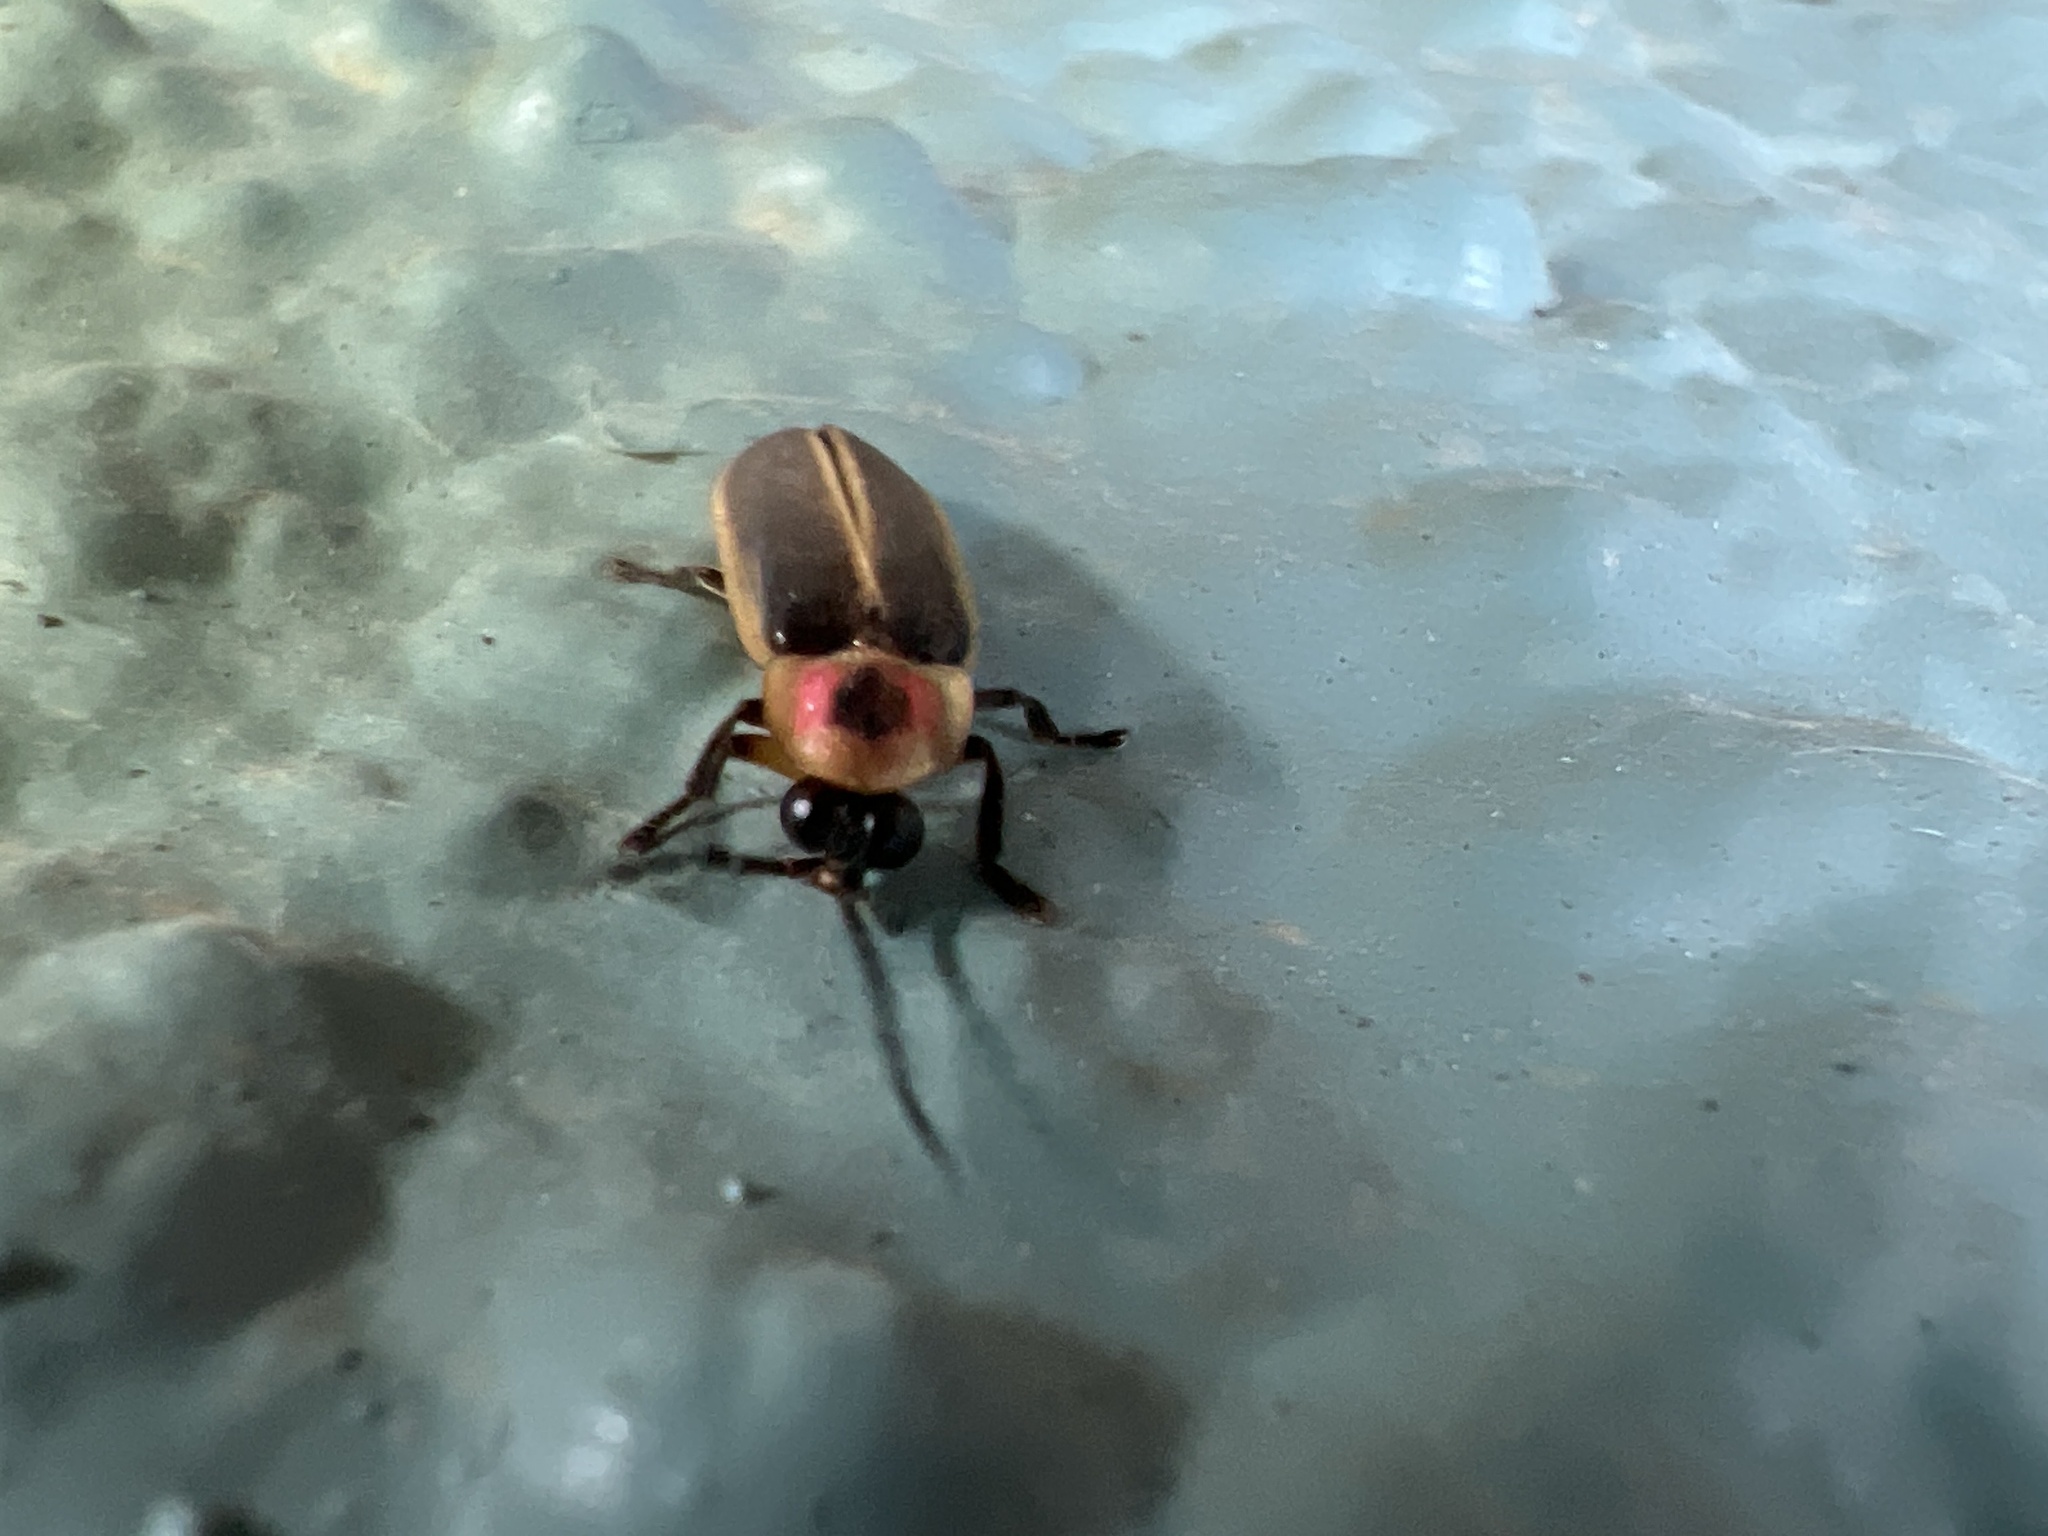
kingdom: Animalia
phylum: Arthropoda
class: Insecta
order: Coleoptera
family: Lampyridae
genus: Photinus
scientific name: Photinus pyralis
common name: Big dipper firefly
